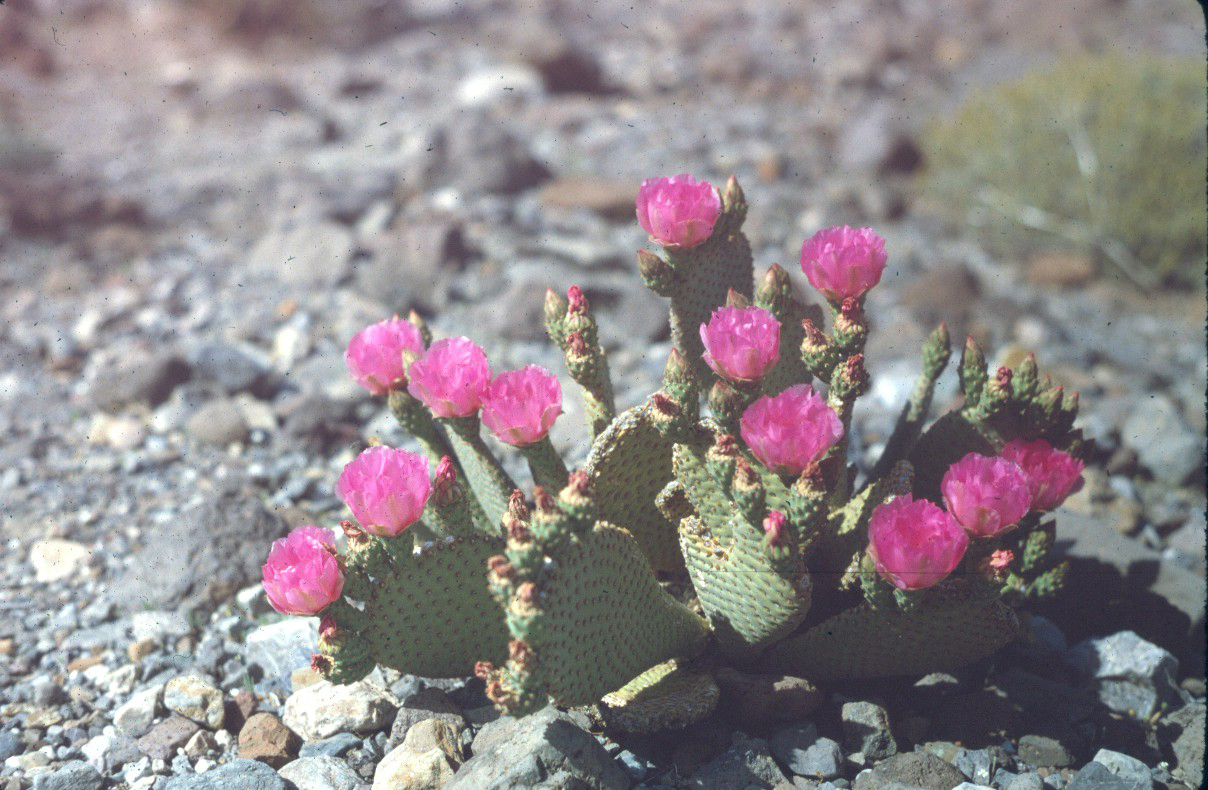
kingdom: Plantae
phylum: Tracheophyta
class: Magnoliopsida
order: Caryophyllales
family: Cactaceae
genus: Opuntia
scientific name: Opuntia basilaris
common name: Beavertail prickly-pear
